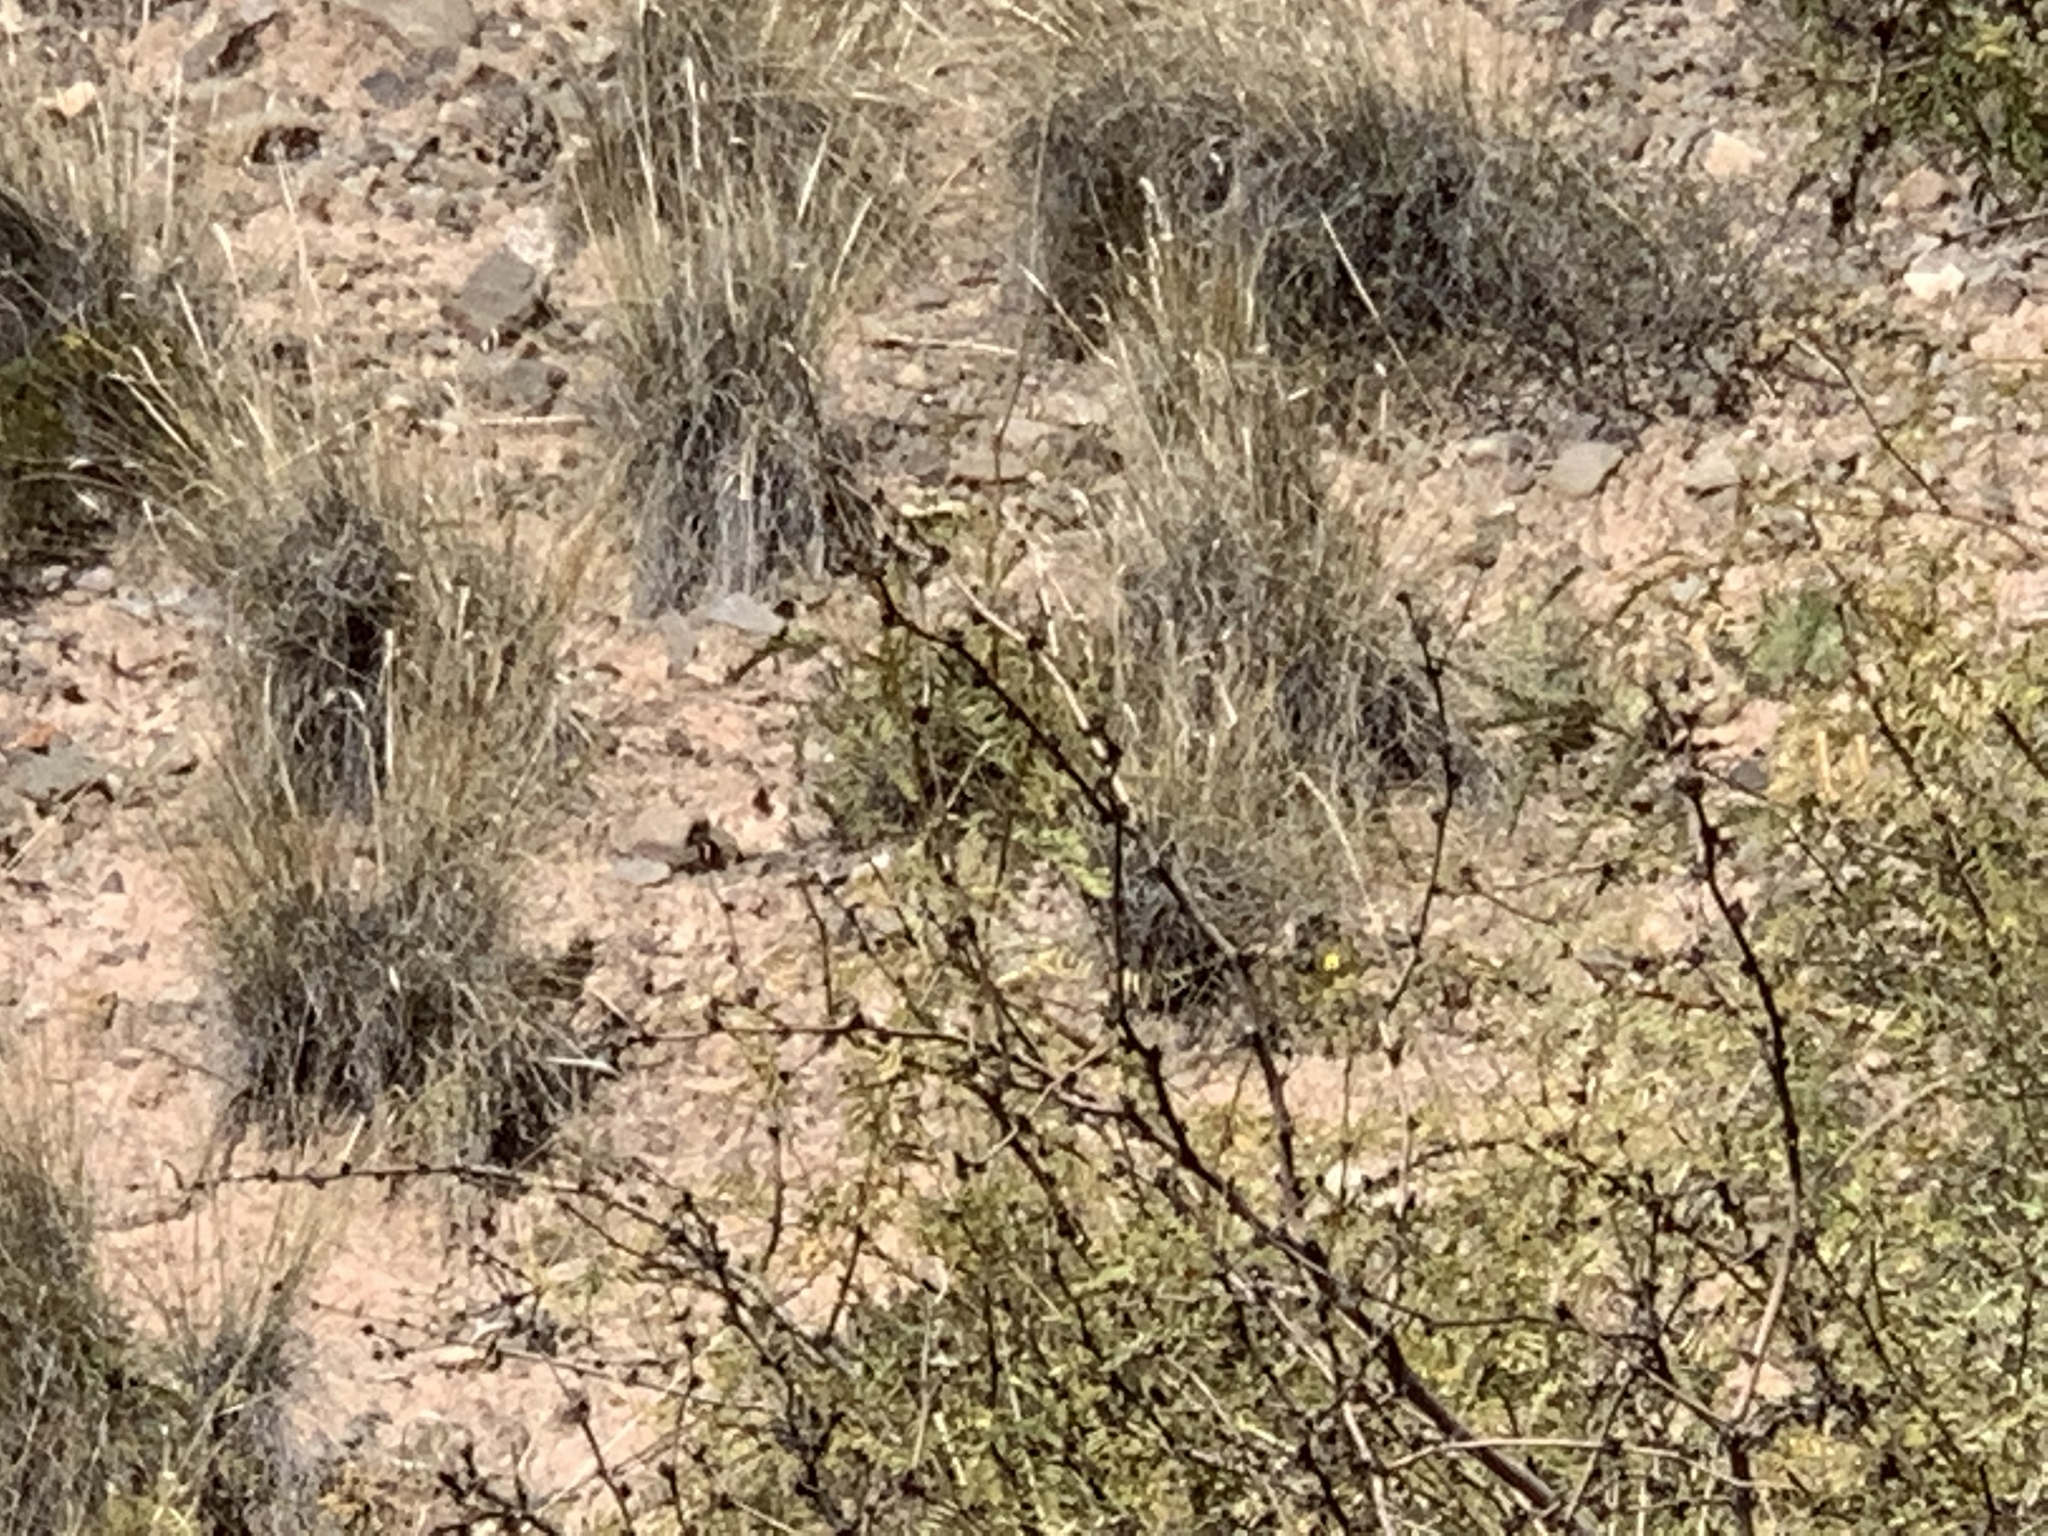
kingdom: Plantae
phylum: Tracheophyta
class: Magnoliopsida
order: Fabales
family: Fabaceae
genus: Prosopis
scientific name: Prosopis glandulosa
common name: Honey mesquite
